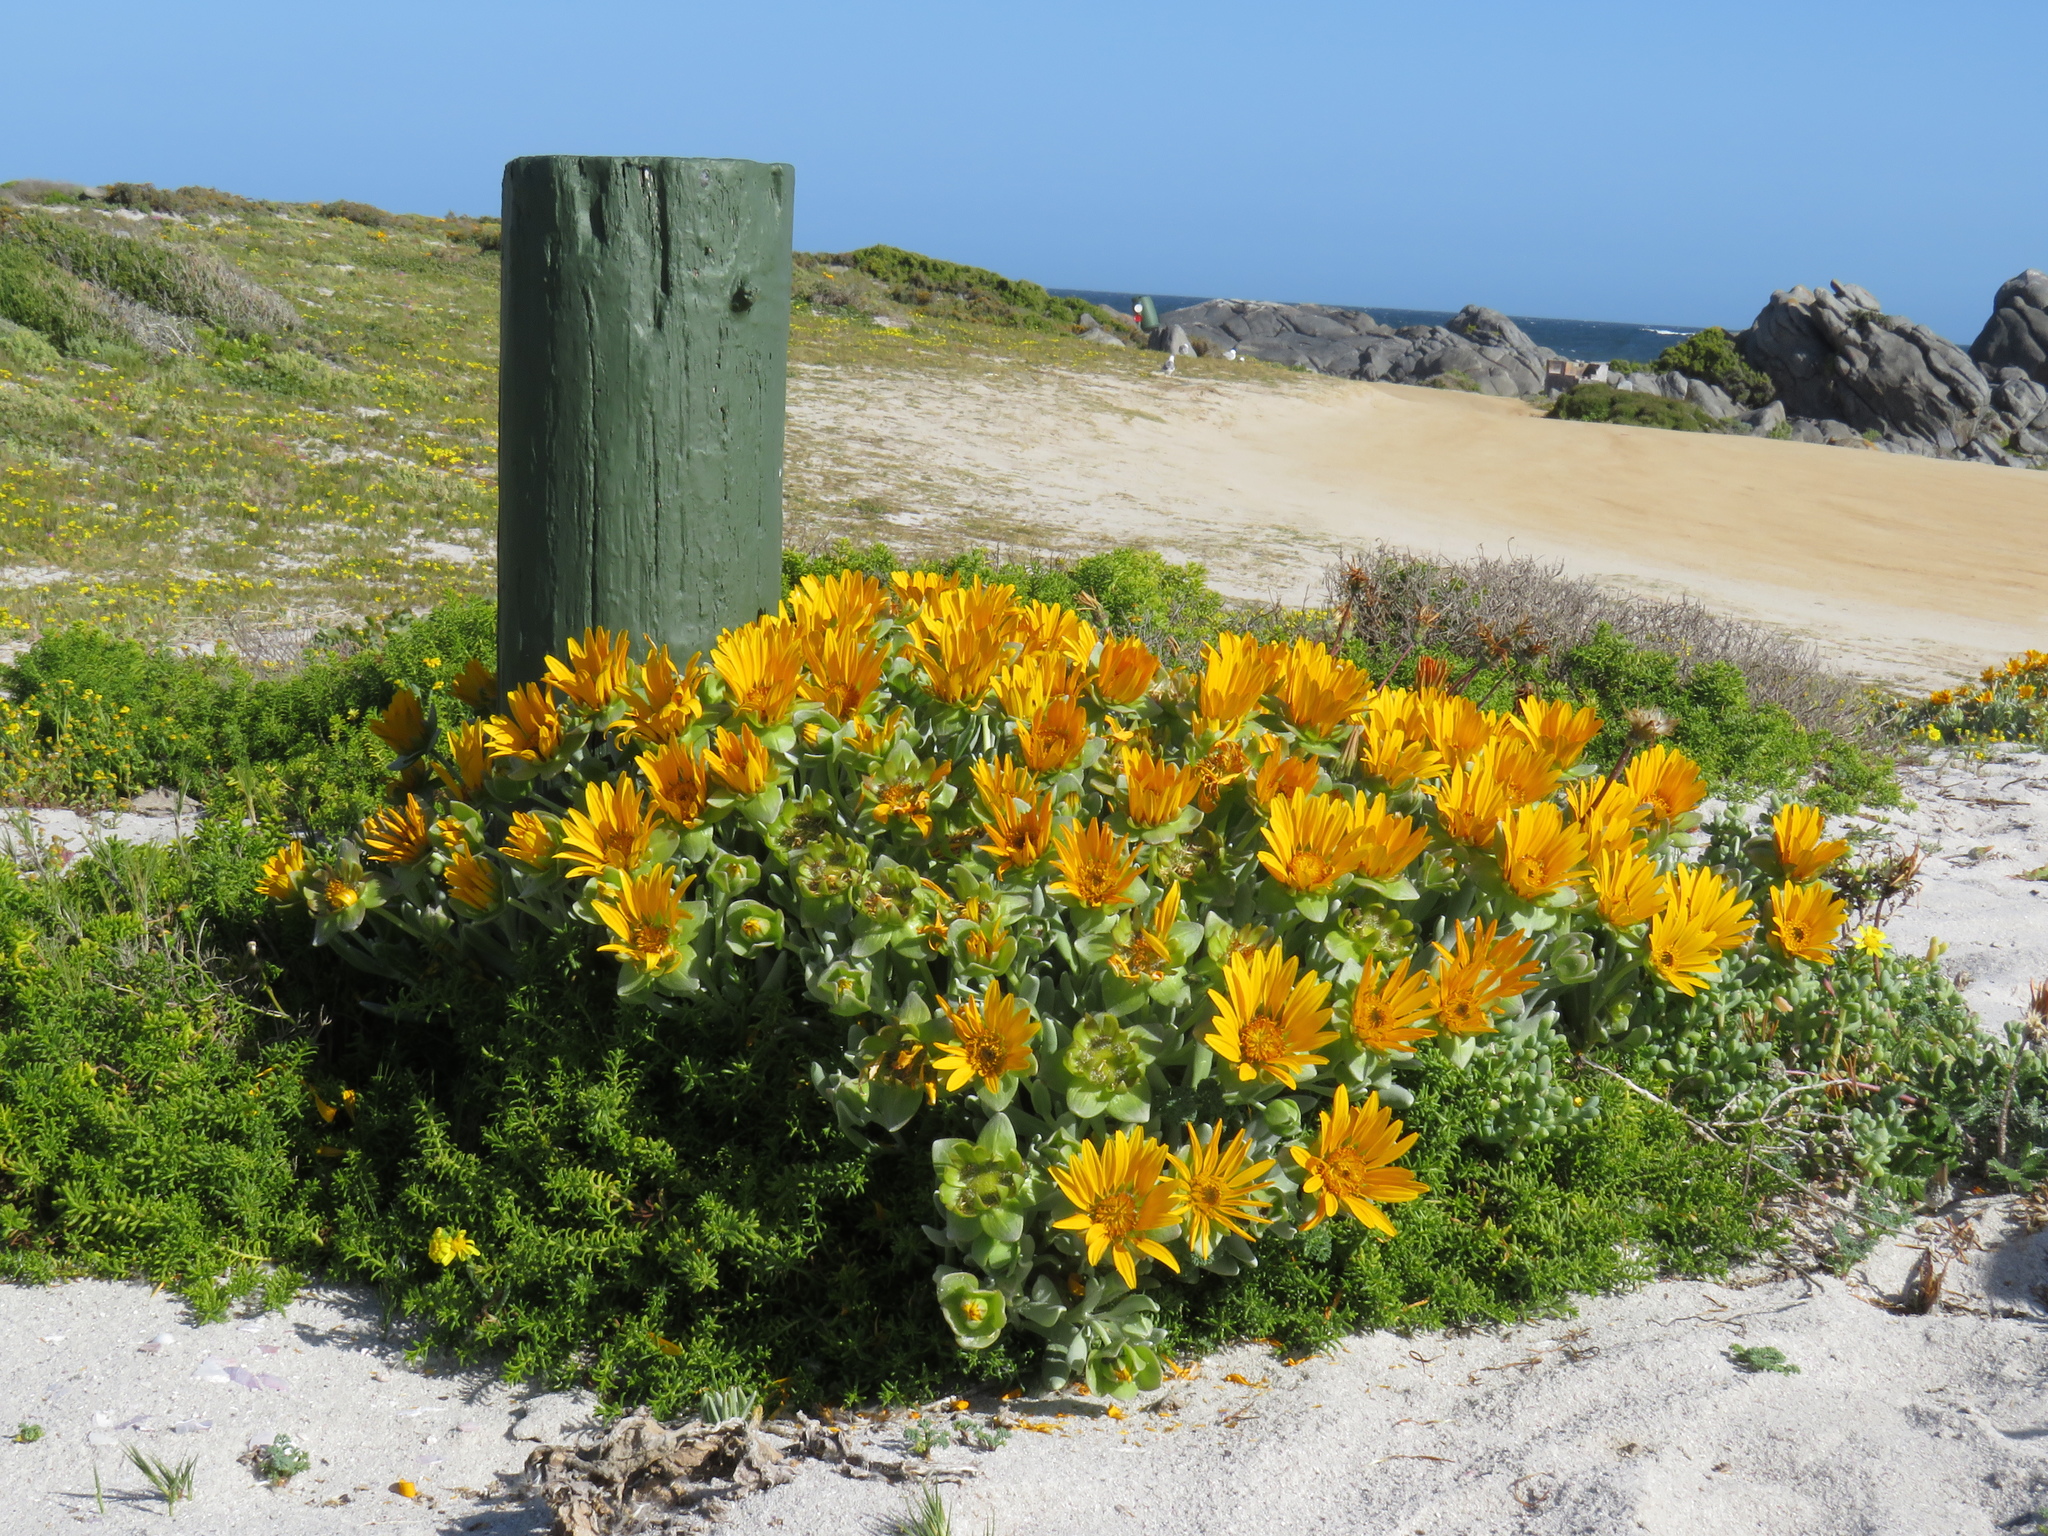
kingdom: Plantae
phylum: Tracheophyta
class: Magnoliopsida
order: Asterales
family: Asteraceae
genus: Didelta
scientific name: Didelta carnosa
